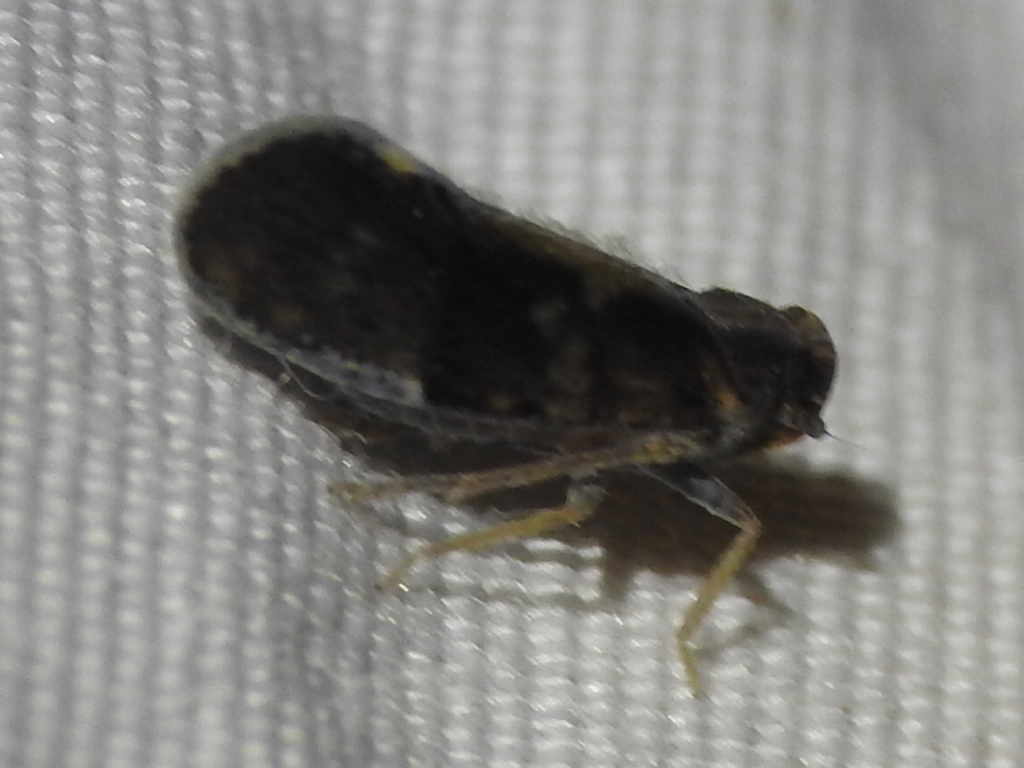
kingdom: Animalia
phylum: Arthropoda
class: Insecta
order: Hemiptera
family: Cixiidae
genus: Pintalia
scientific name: Pintalia vibex
